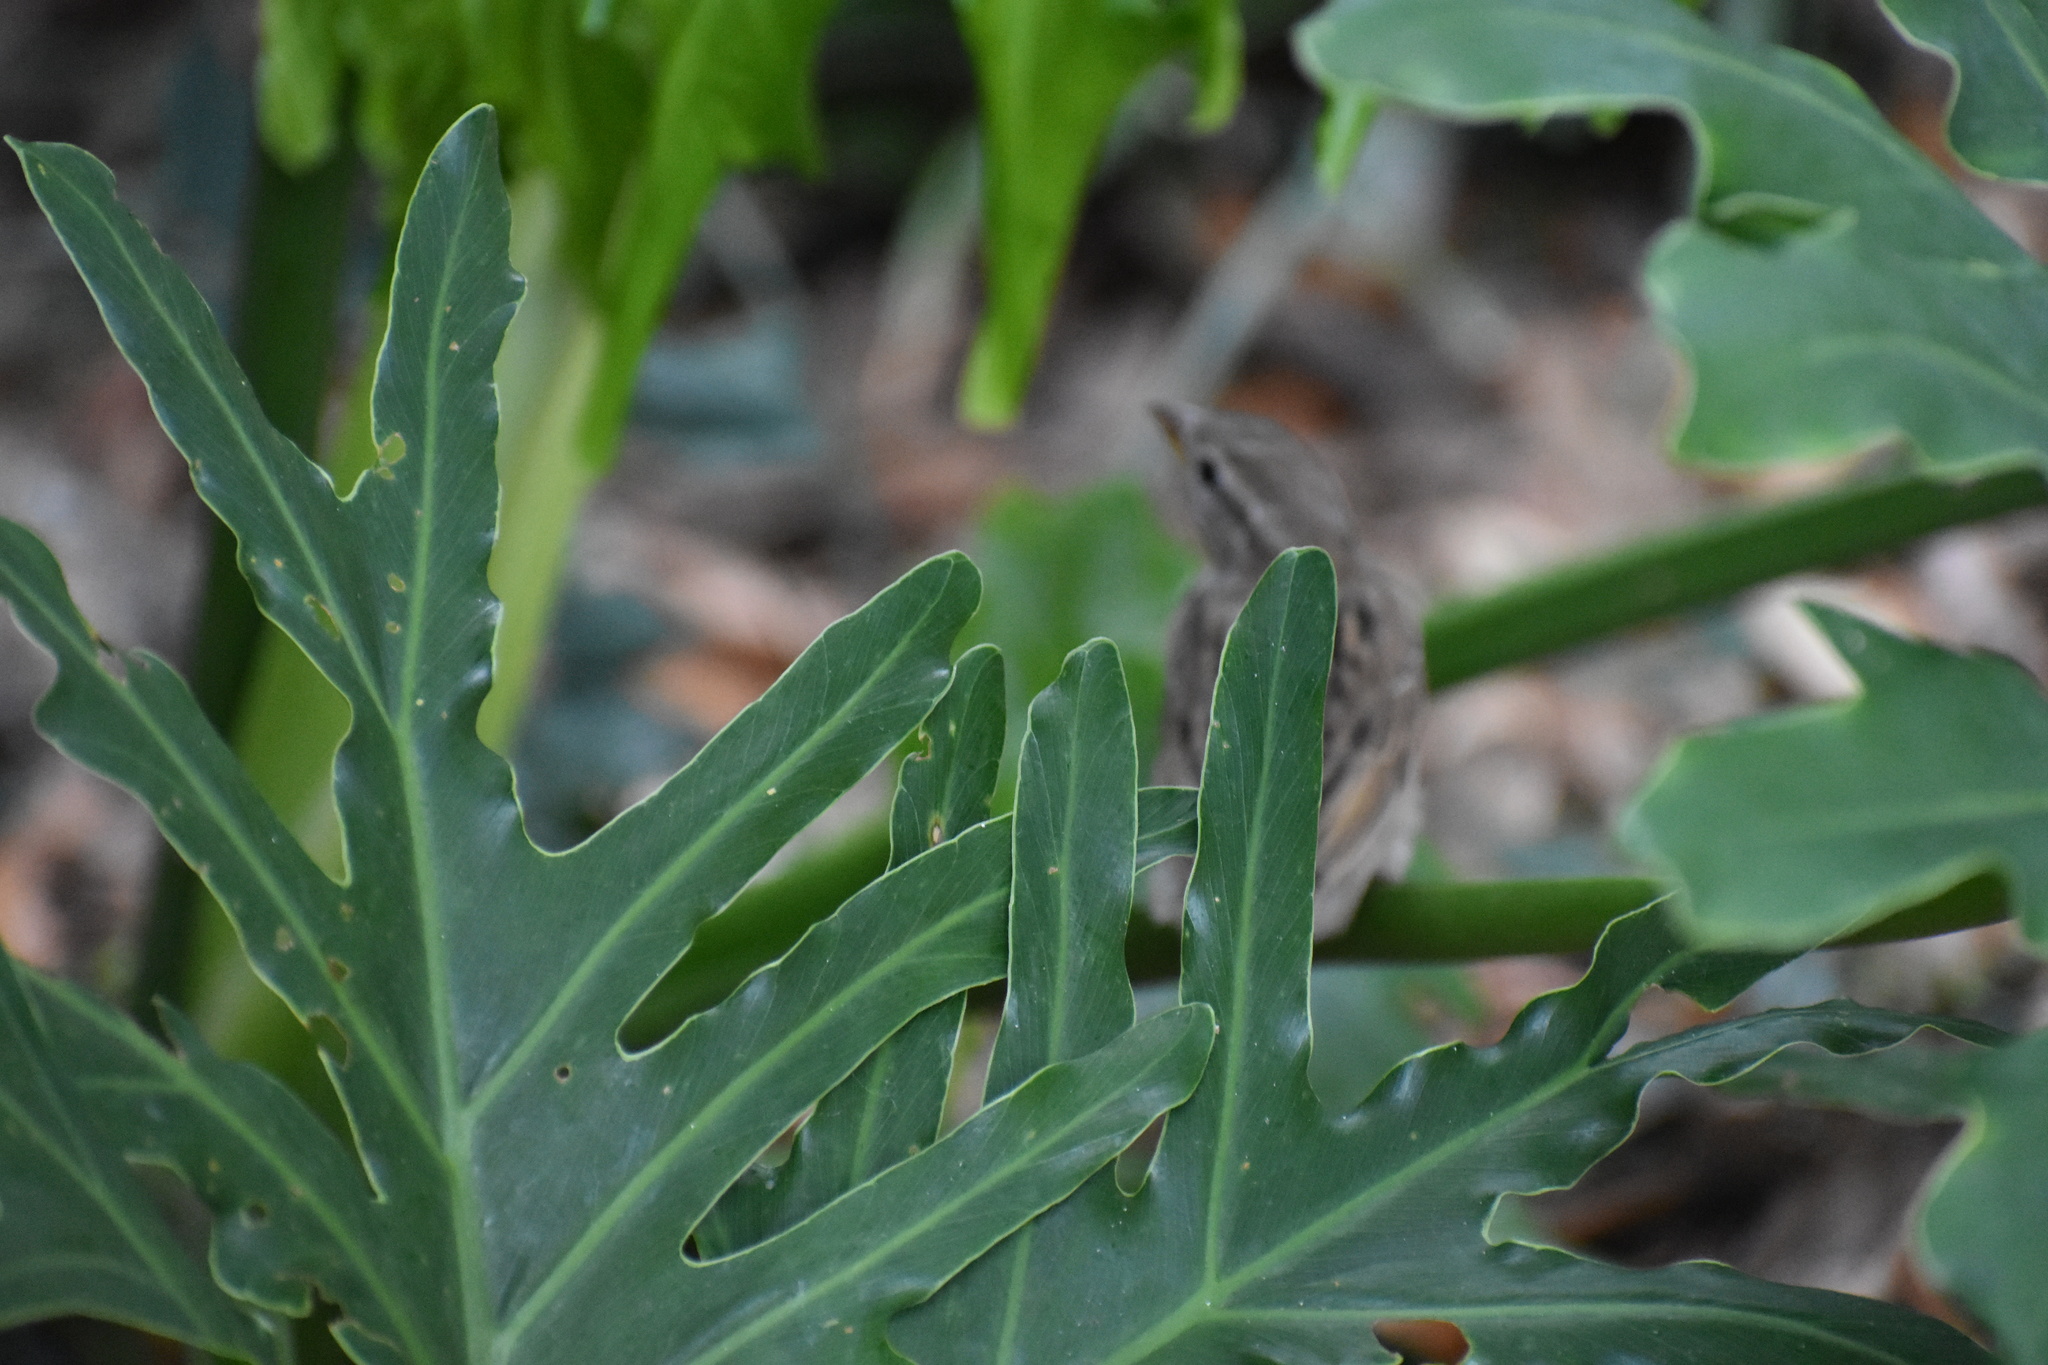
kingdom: Animalia
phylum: Chordata
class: Aves
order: Passeriformes
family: Passeridae
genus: Passer
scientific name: Passer domesticus
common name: House sparrow
